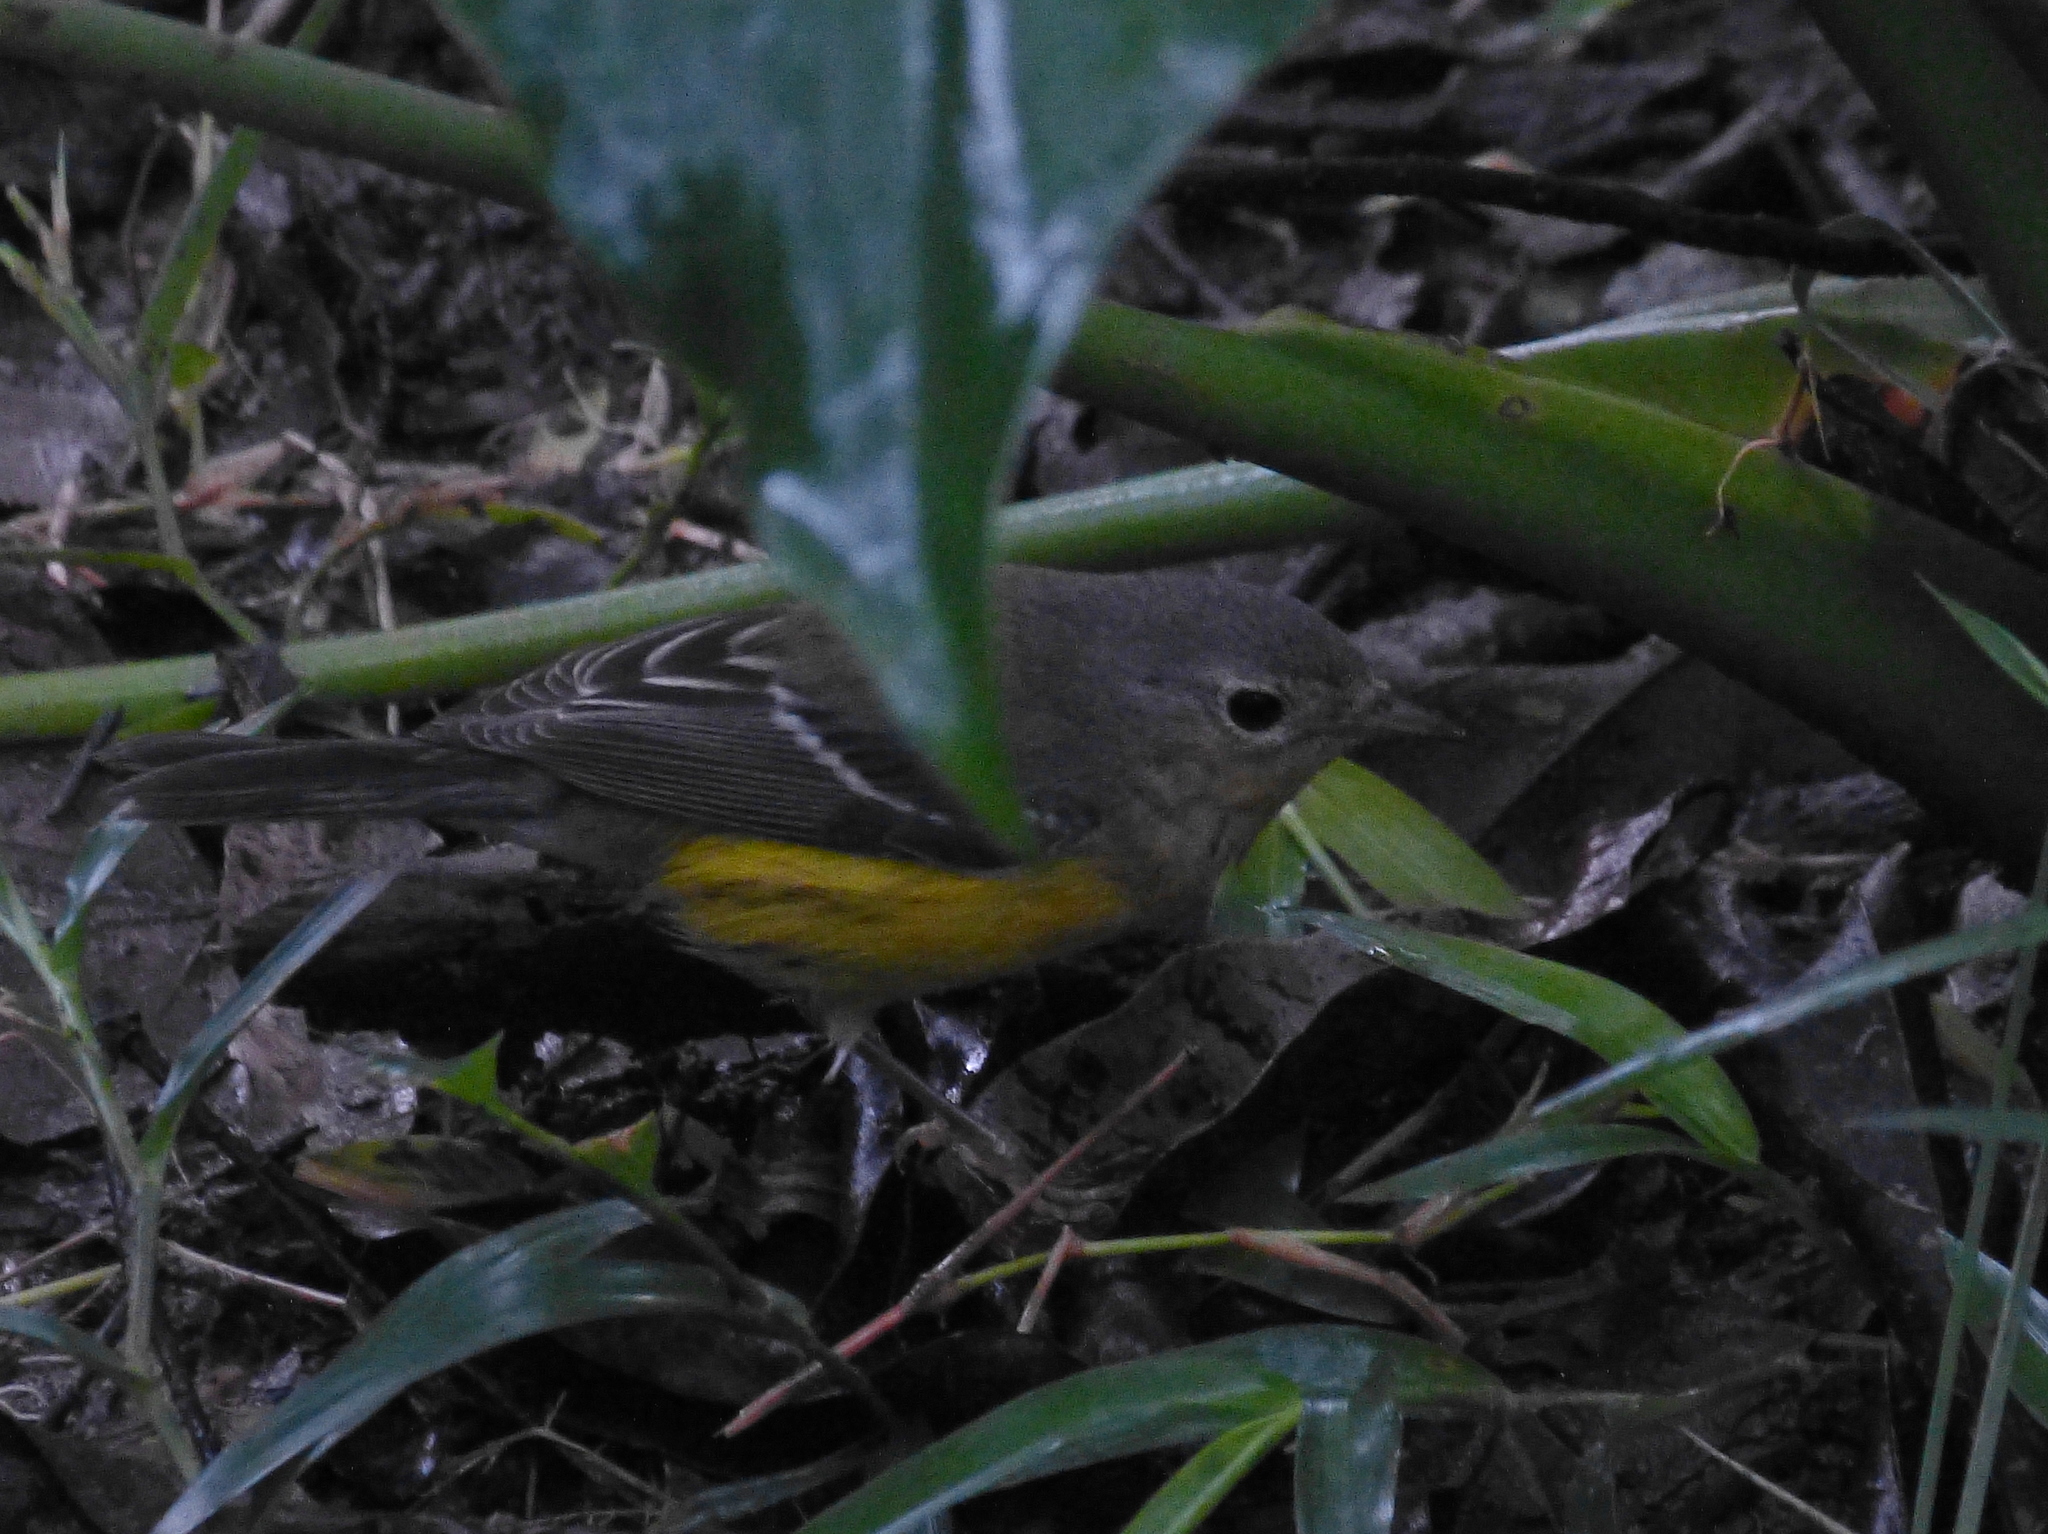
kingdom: Animalia
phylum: Chordata
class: Aves
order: Passeriformes
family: Parulidae
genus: Setophaga
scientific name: Setophaga magnolia
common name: Magnolia warbler
